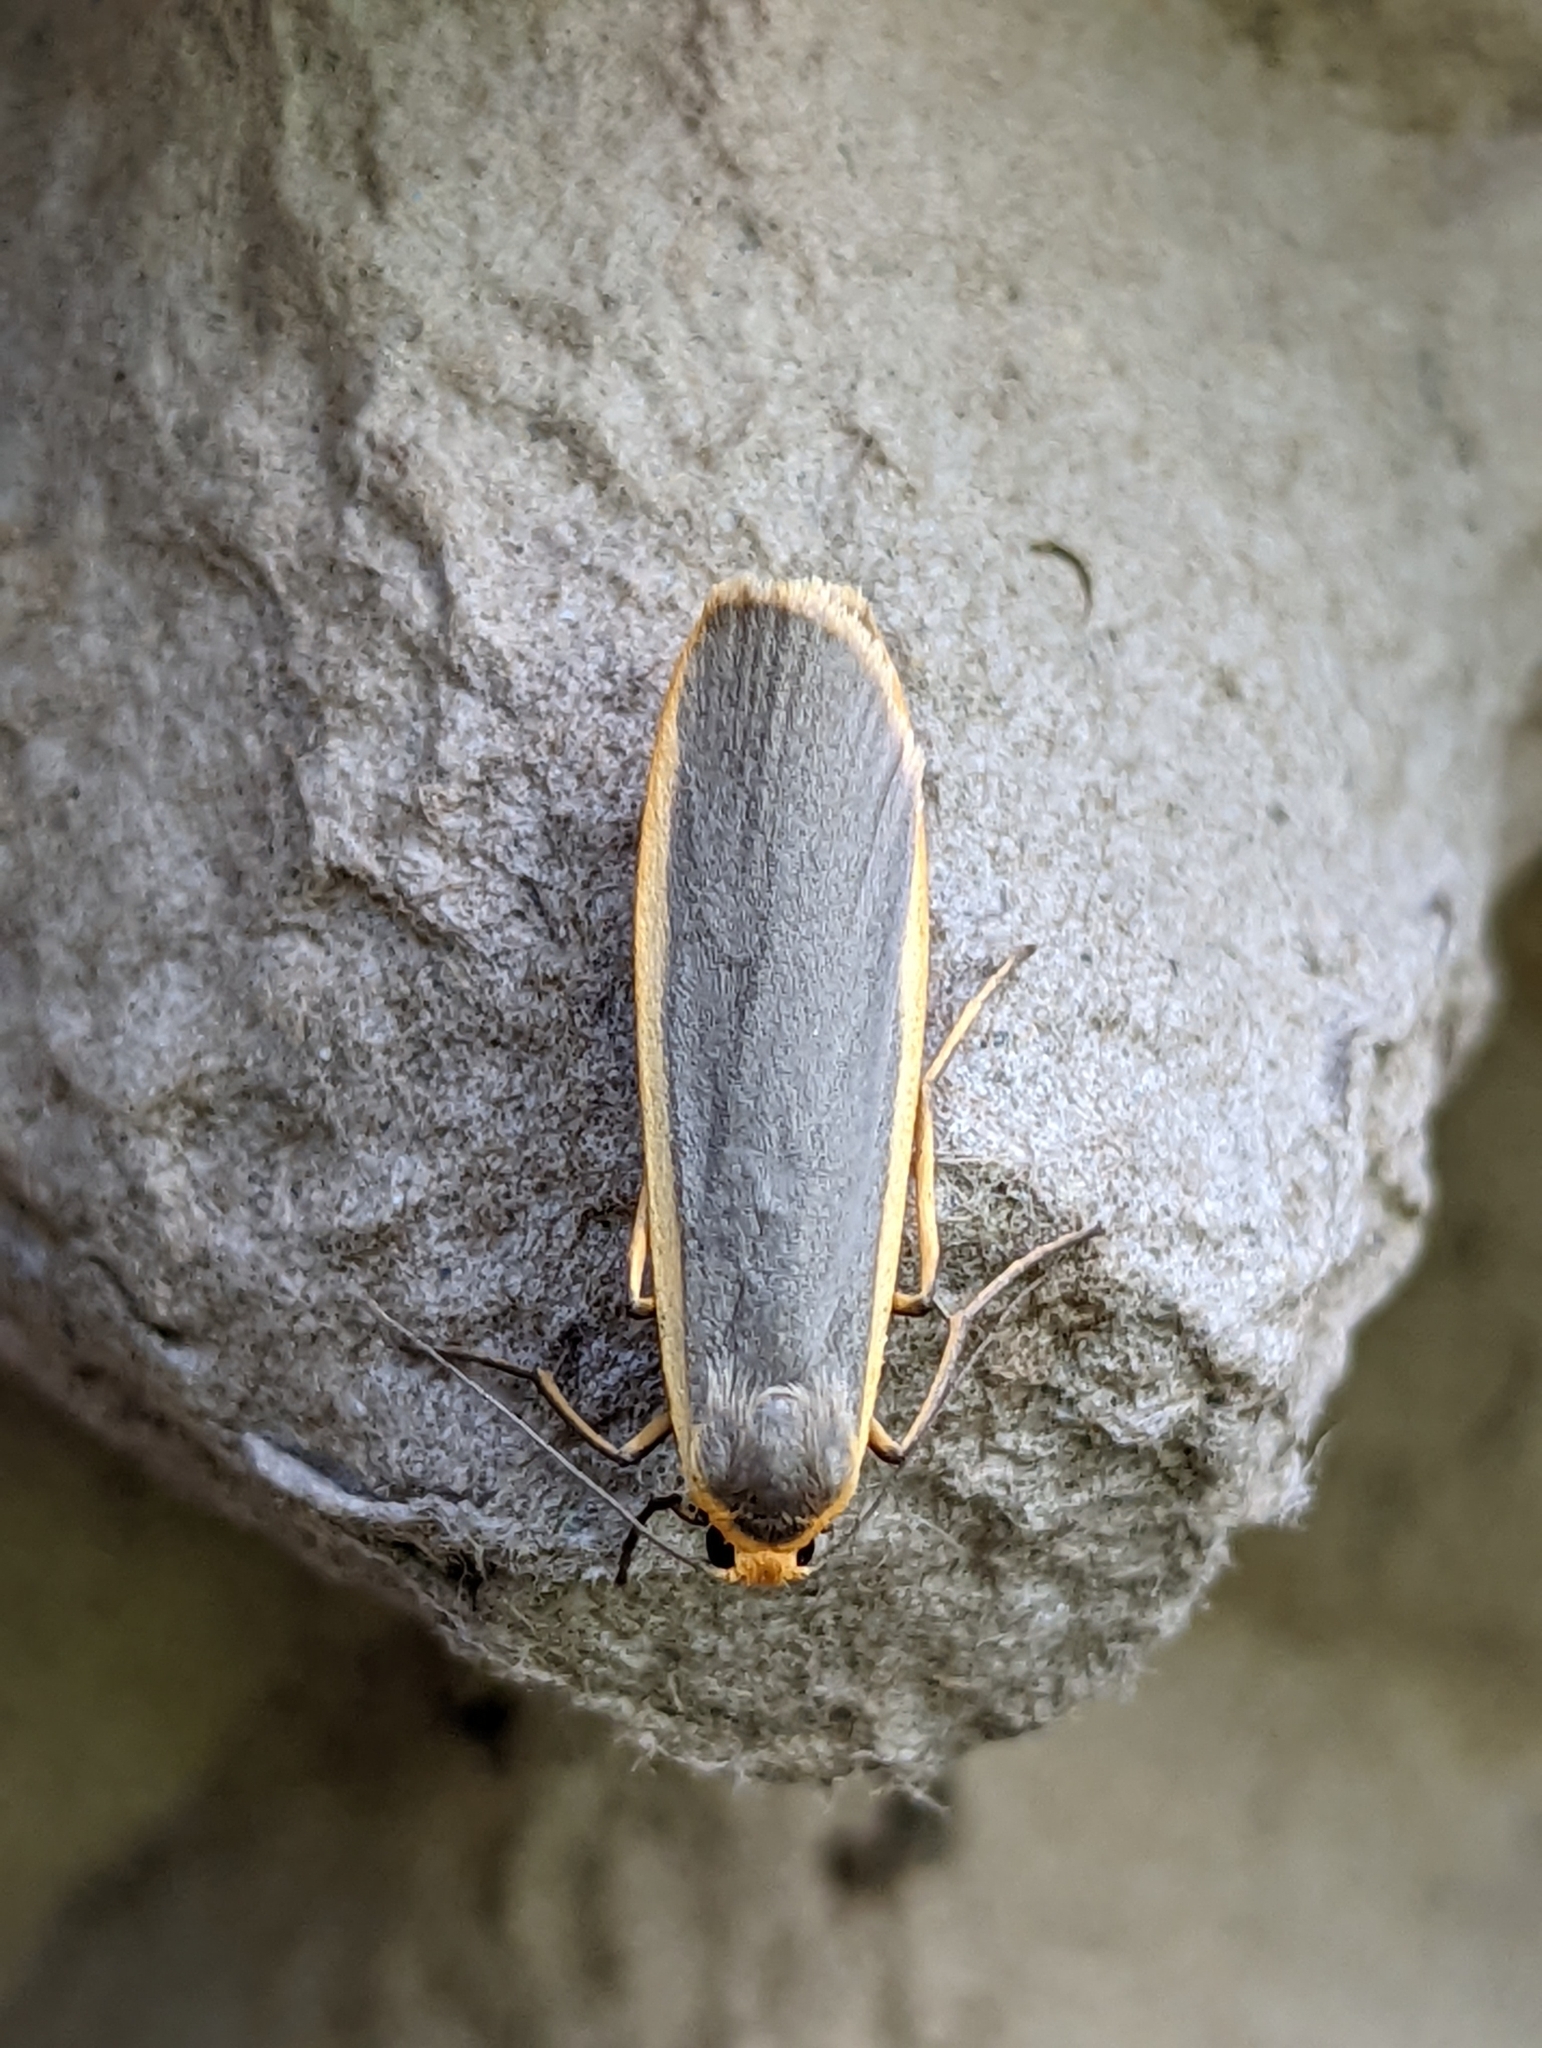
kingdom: Animalia
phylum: Arthropoda
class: Insecta
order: Lepidoptera
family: Erebidae
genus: Nyea
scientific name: Nyea lurideola
